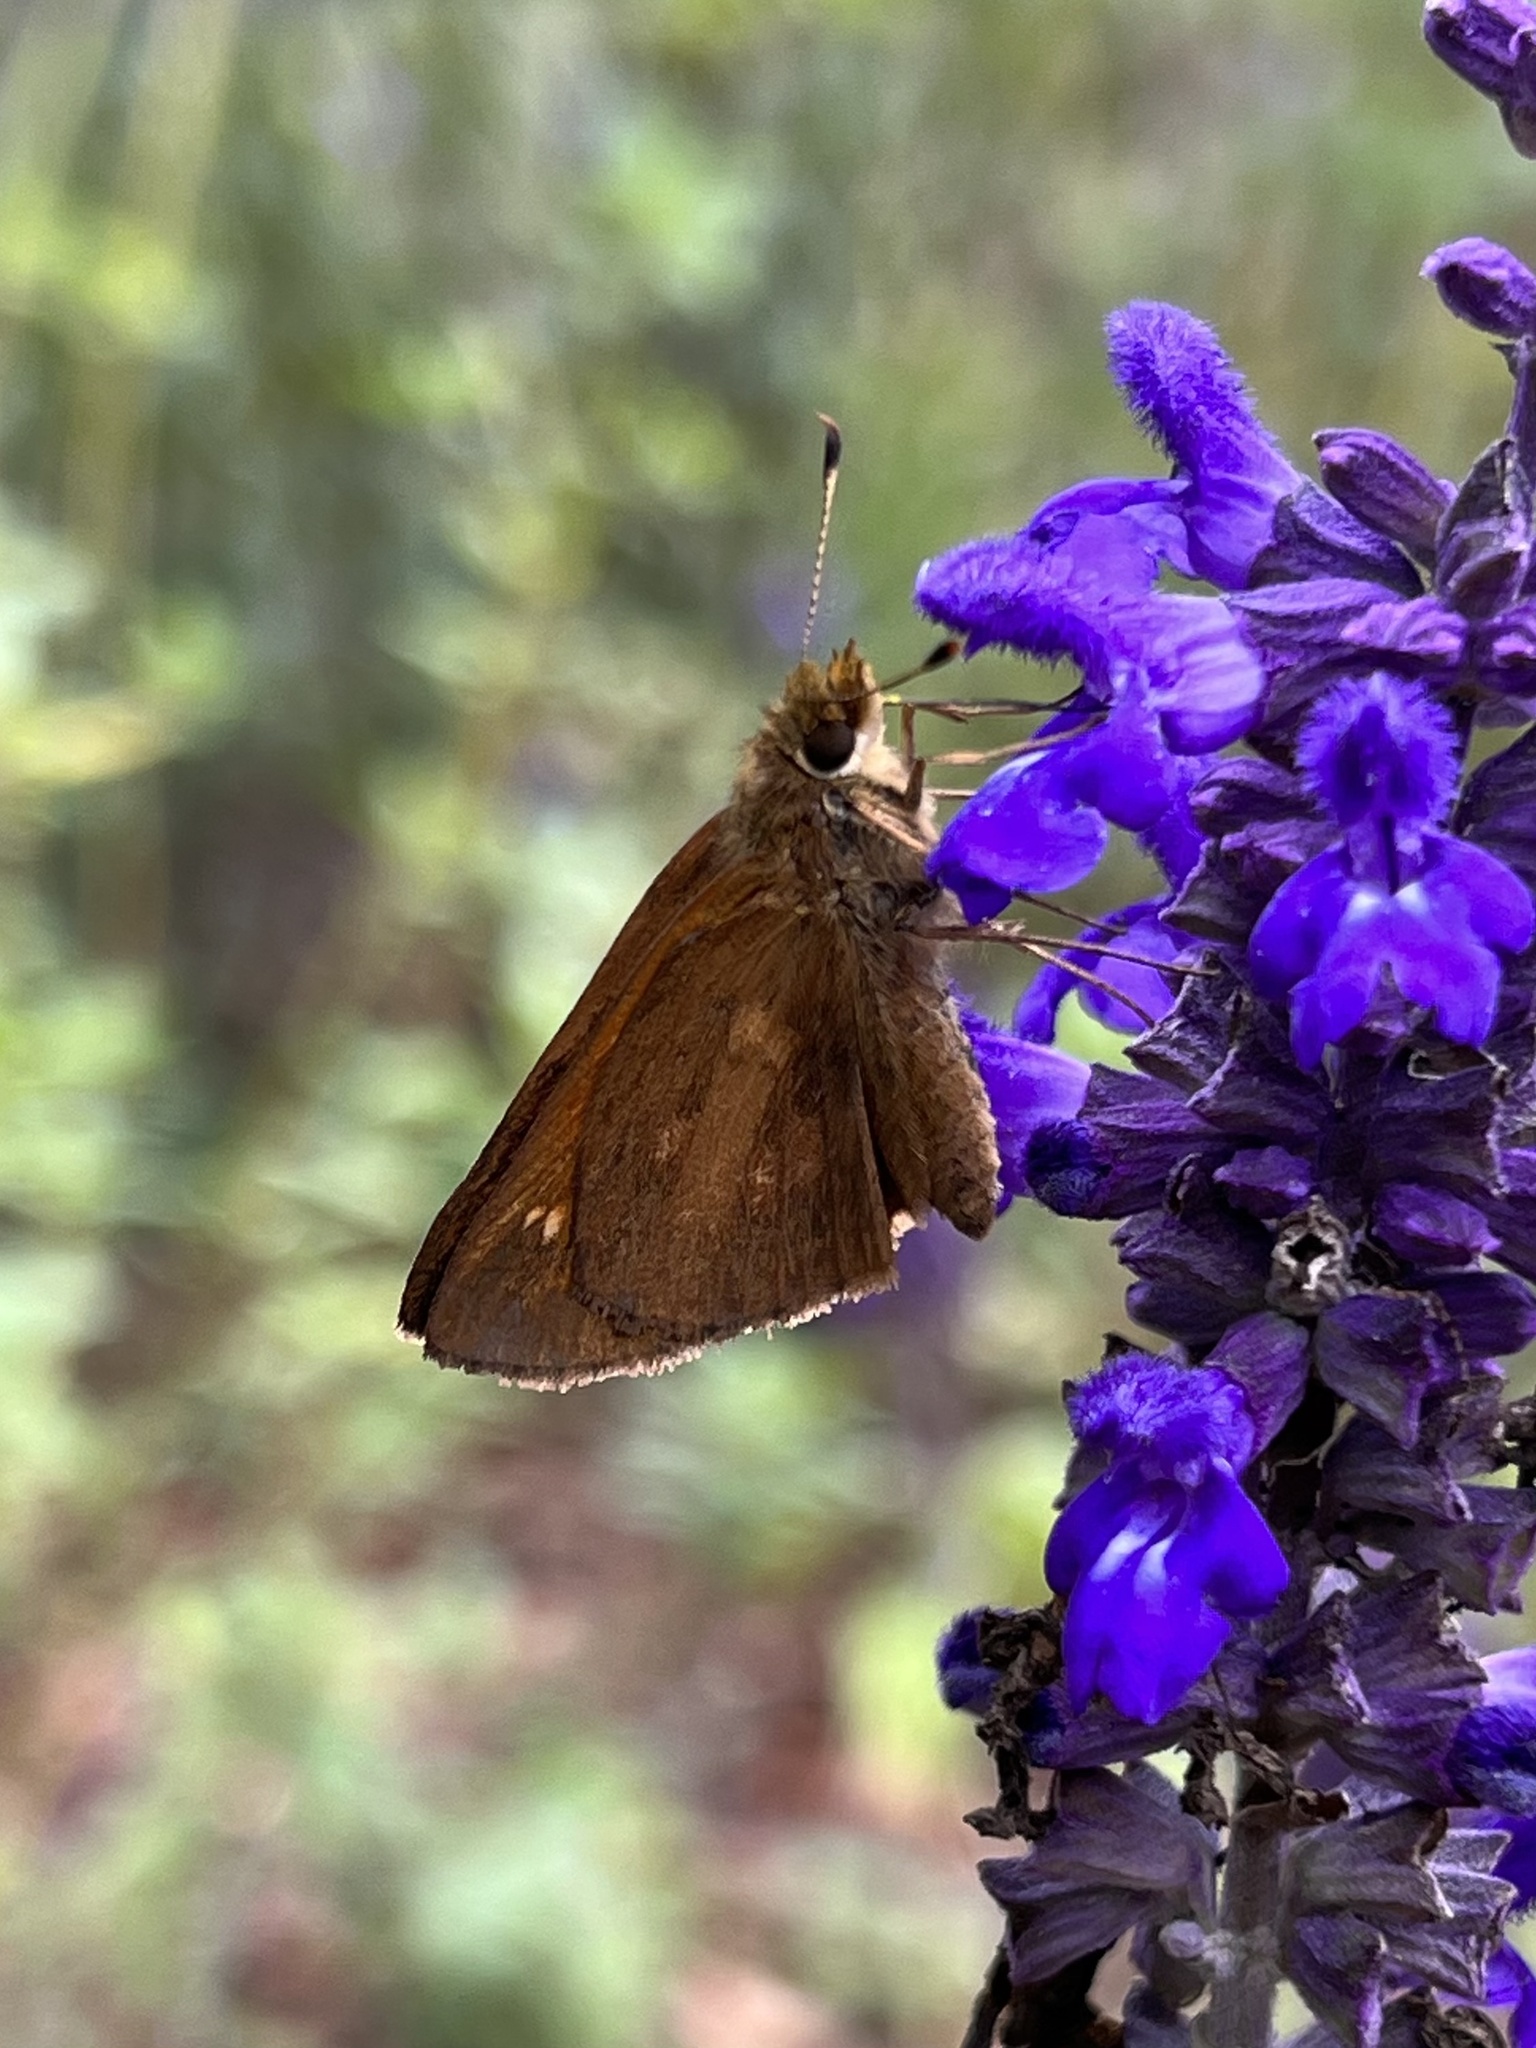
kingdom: Animalia
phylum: Arthropoda
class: Insecta
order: Lepidoptera
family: Hesperiidae
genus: Poanes
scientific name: Poanes viator
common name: Broad-winged skipper
